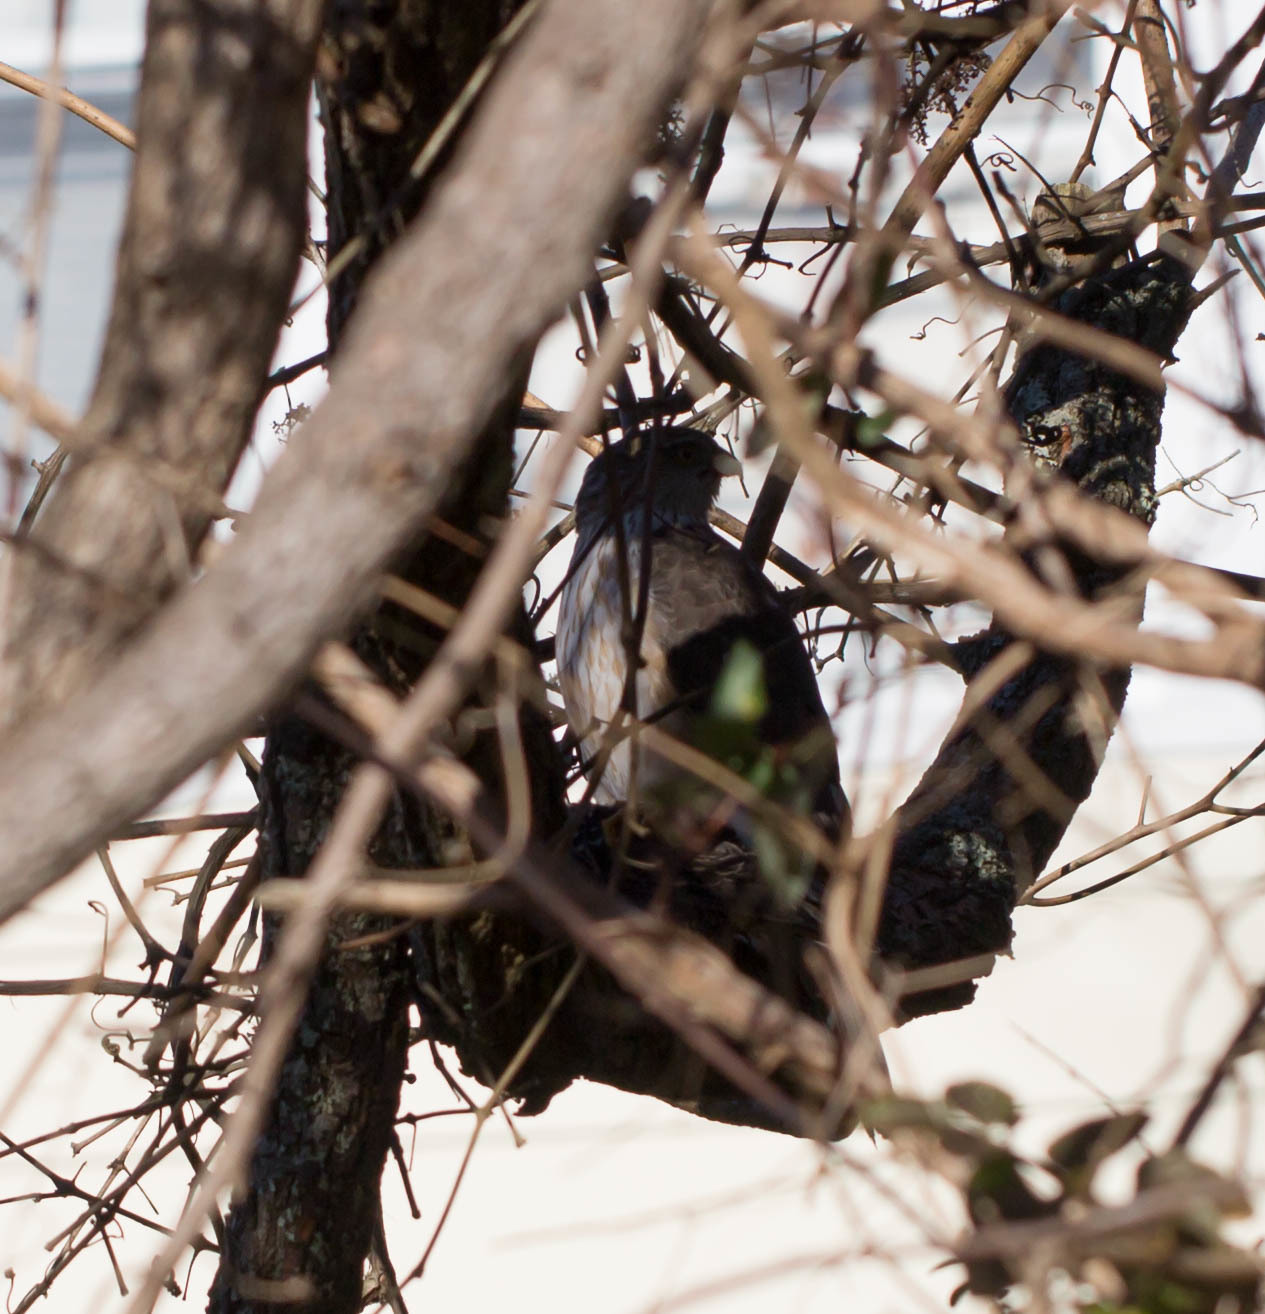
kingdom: Animalia
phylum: Chordata
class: Aves
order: Accipitriformes
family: Accipitridae
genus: Accipiter
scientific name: Accipiter striatus
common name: Sharp-shinned hawk
